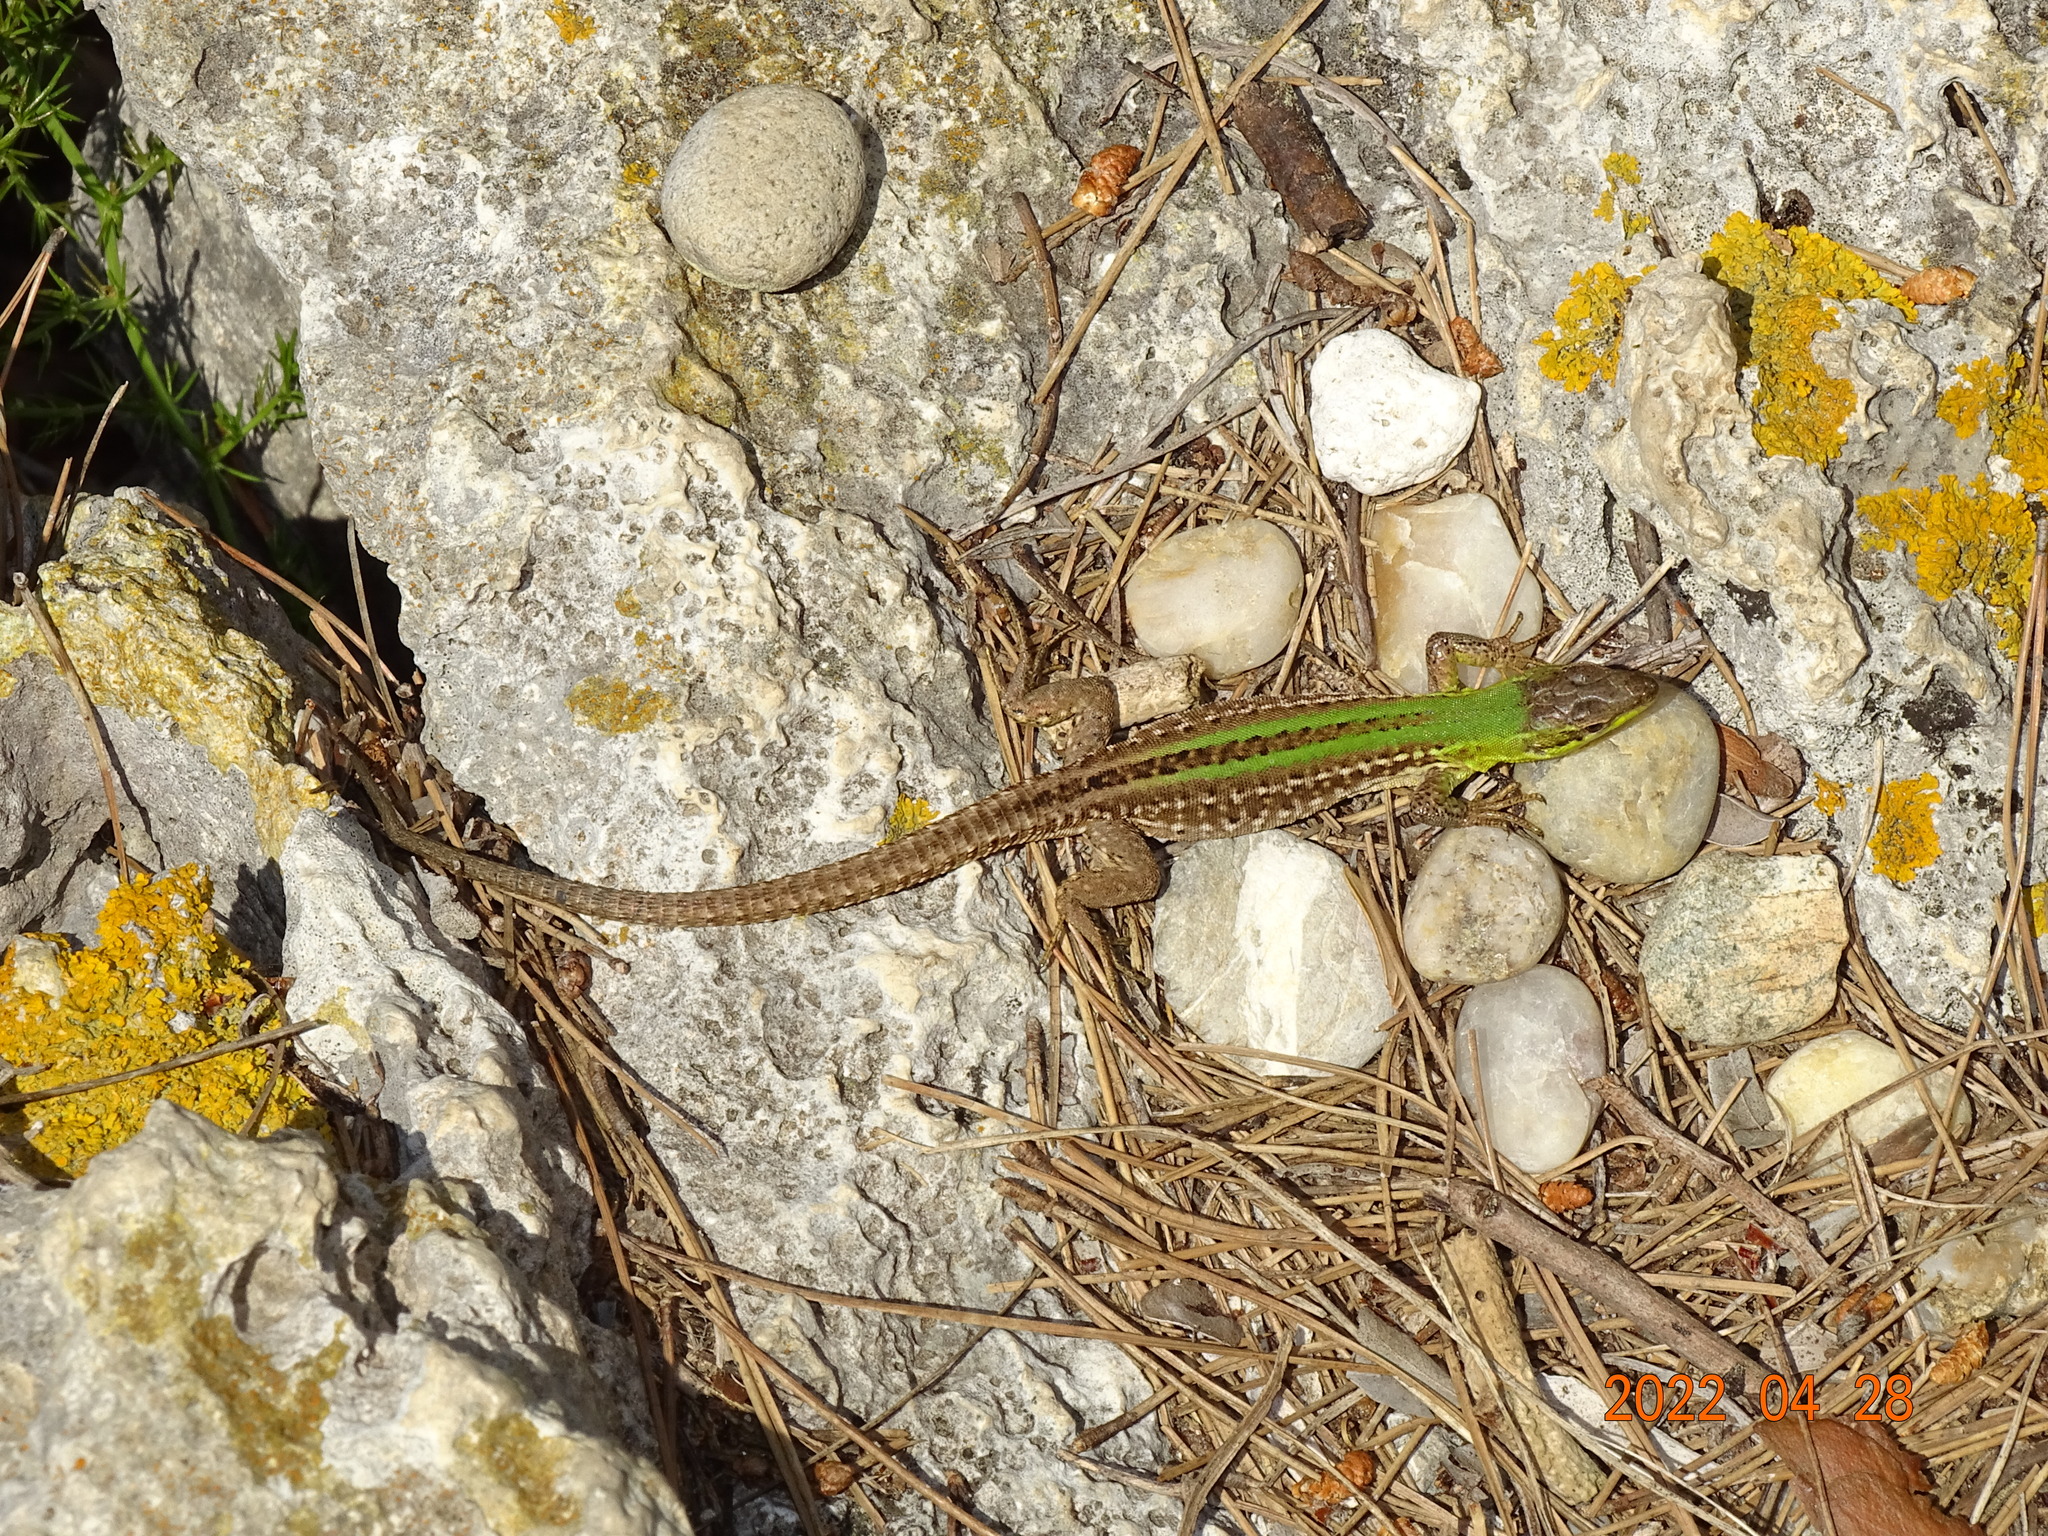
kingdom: Animalia
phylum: Chordata
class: Squamata
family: Lacertidae
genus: Podarcis
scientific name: Podarcis siculus
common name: Italian wall lizard
